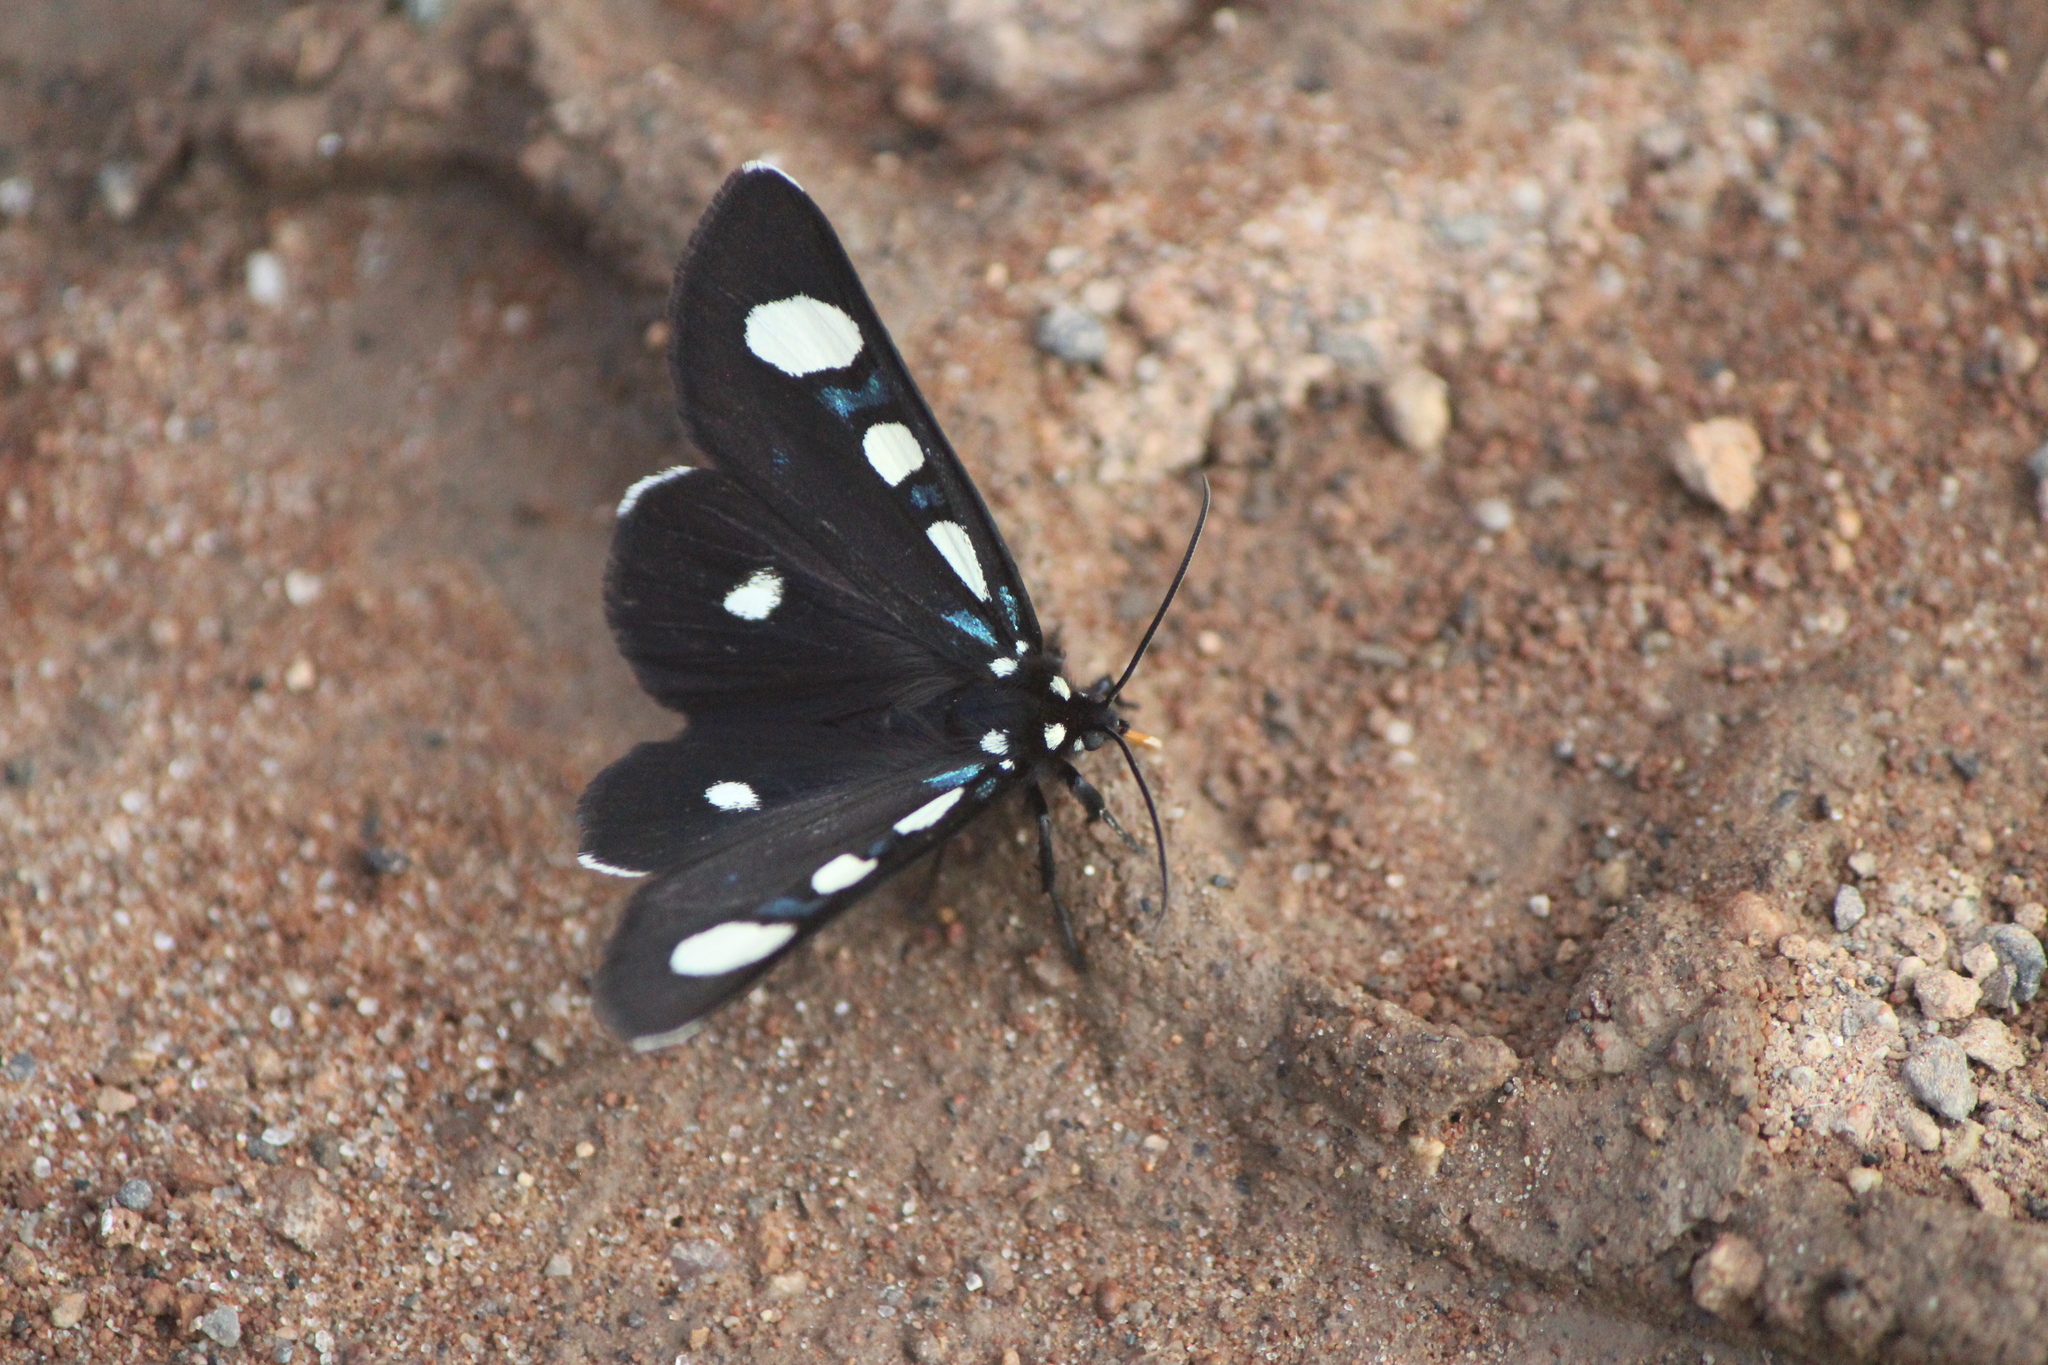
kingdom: Animalia
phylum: Arthropoda
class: Insecta
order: Lepidoptera
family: Noctuidae
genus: Alypiodes
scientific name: Alypiodes bimaculata
